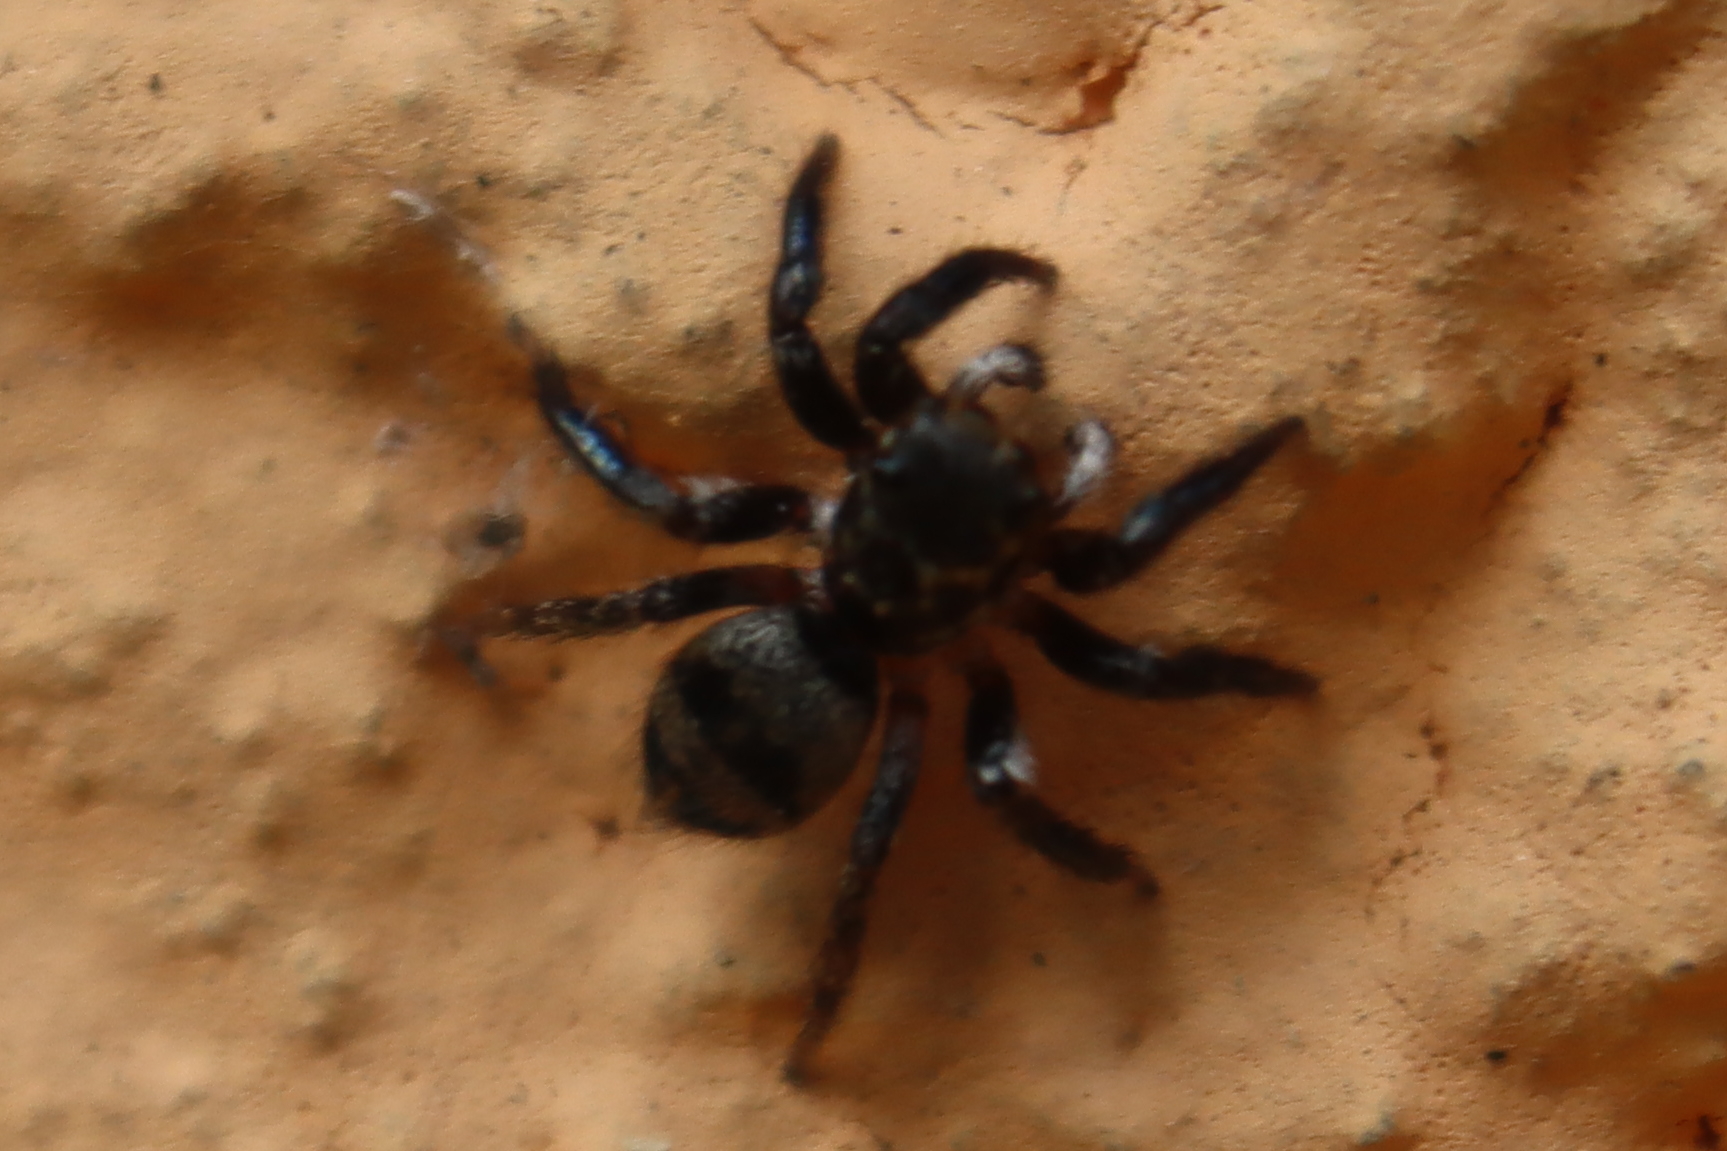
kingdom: Animalia
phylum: Arthropoda
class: Arachnida
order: Araneae
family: Salticidae
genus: Corythalia
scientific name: Corythalia conferta
